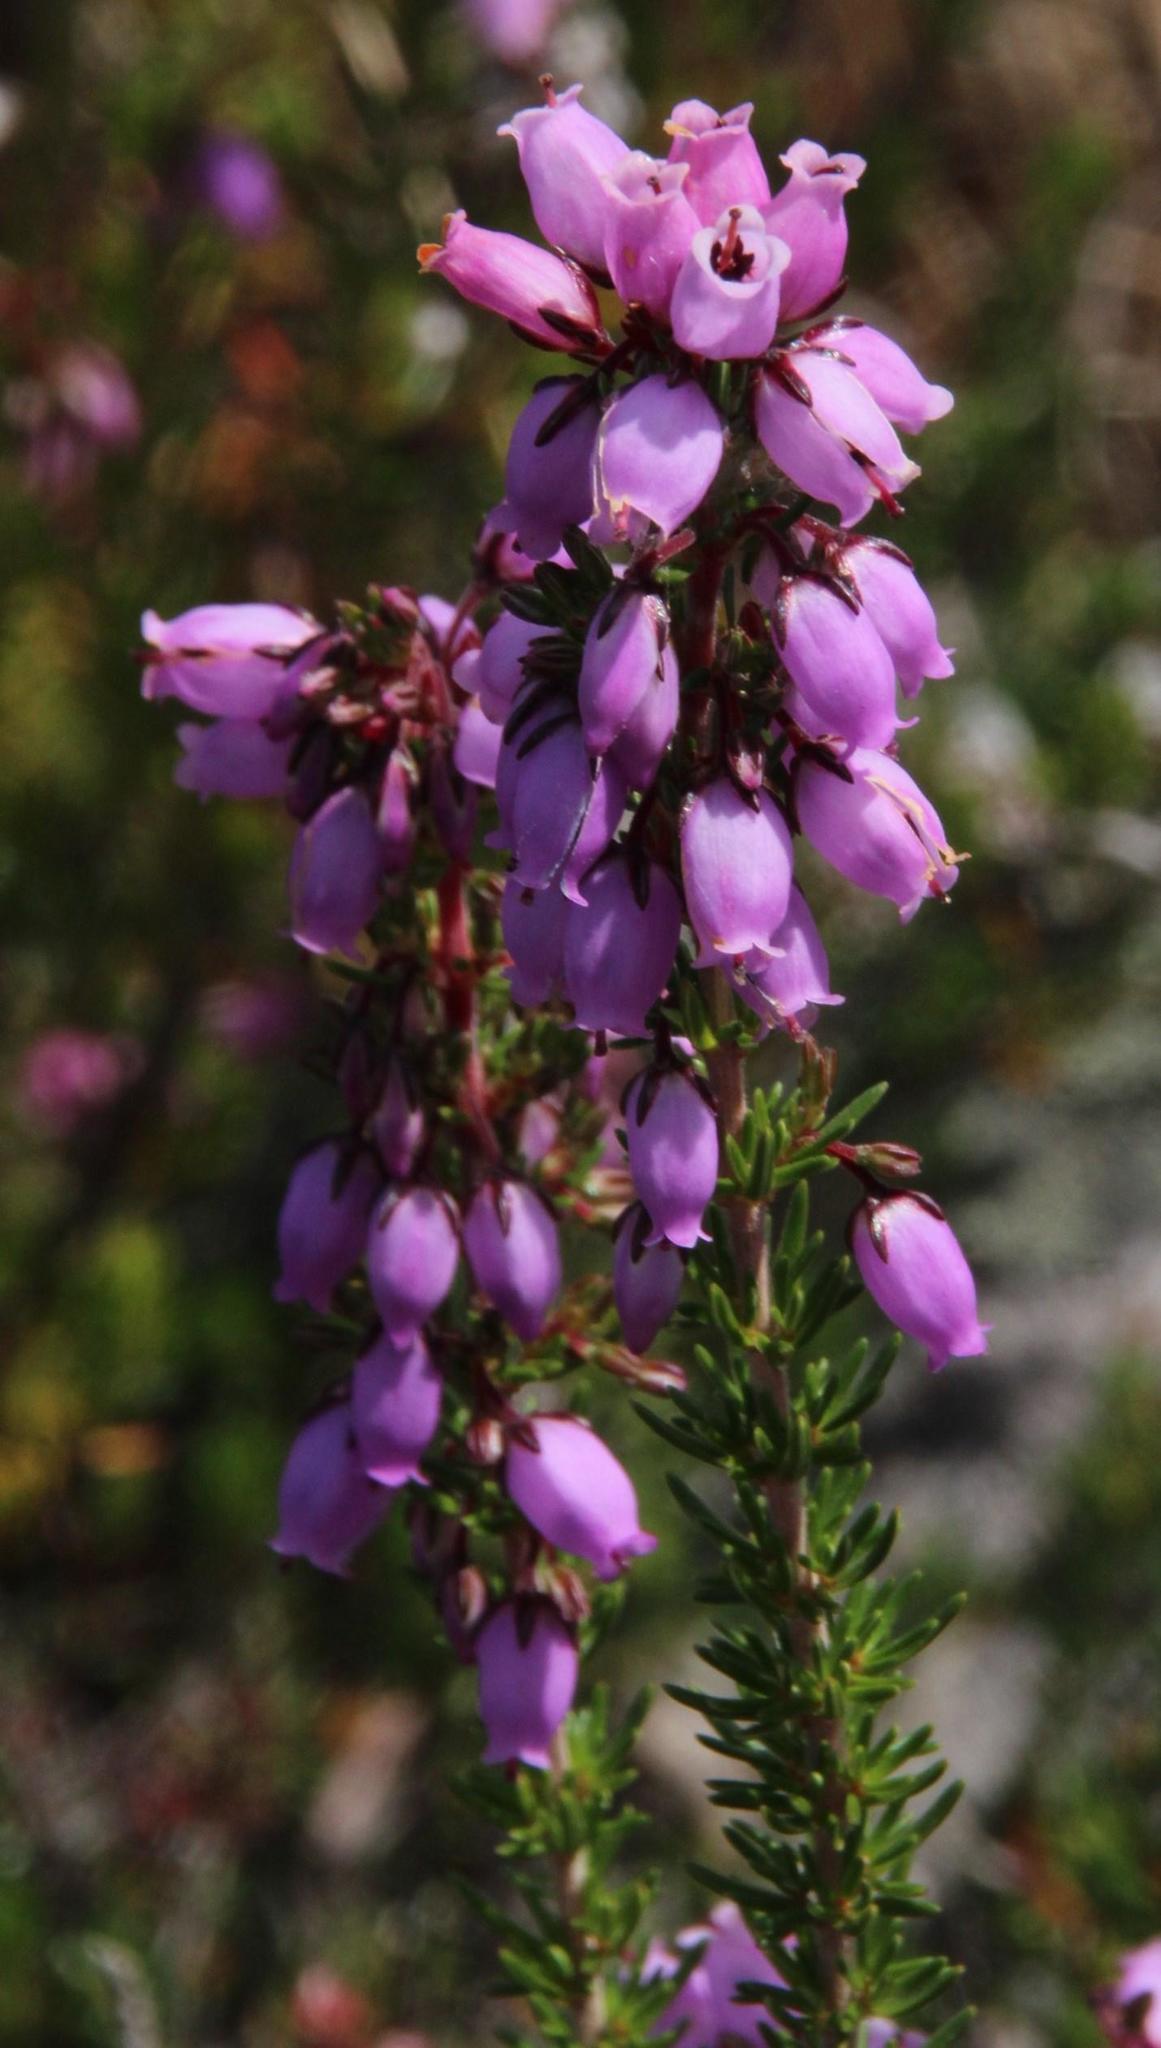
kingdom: Plantae
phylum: Tracheophyta
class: Magnoliopsida
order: Ericales
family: Ericaceae
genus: Erica
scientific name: Erica cinerea
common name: Bell heather
